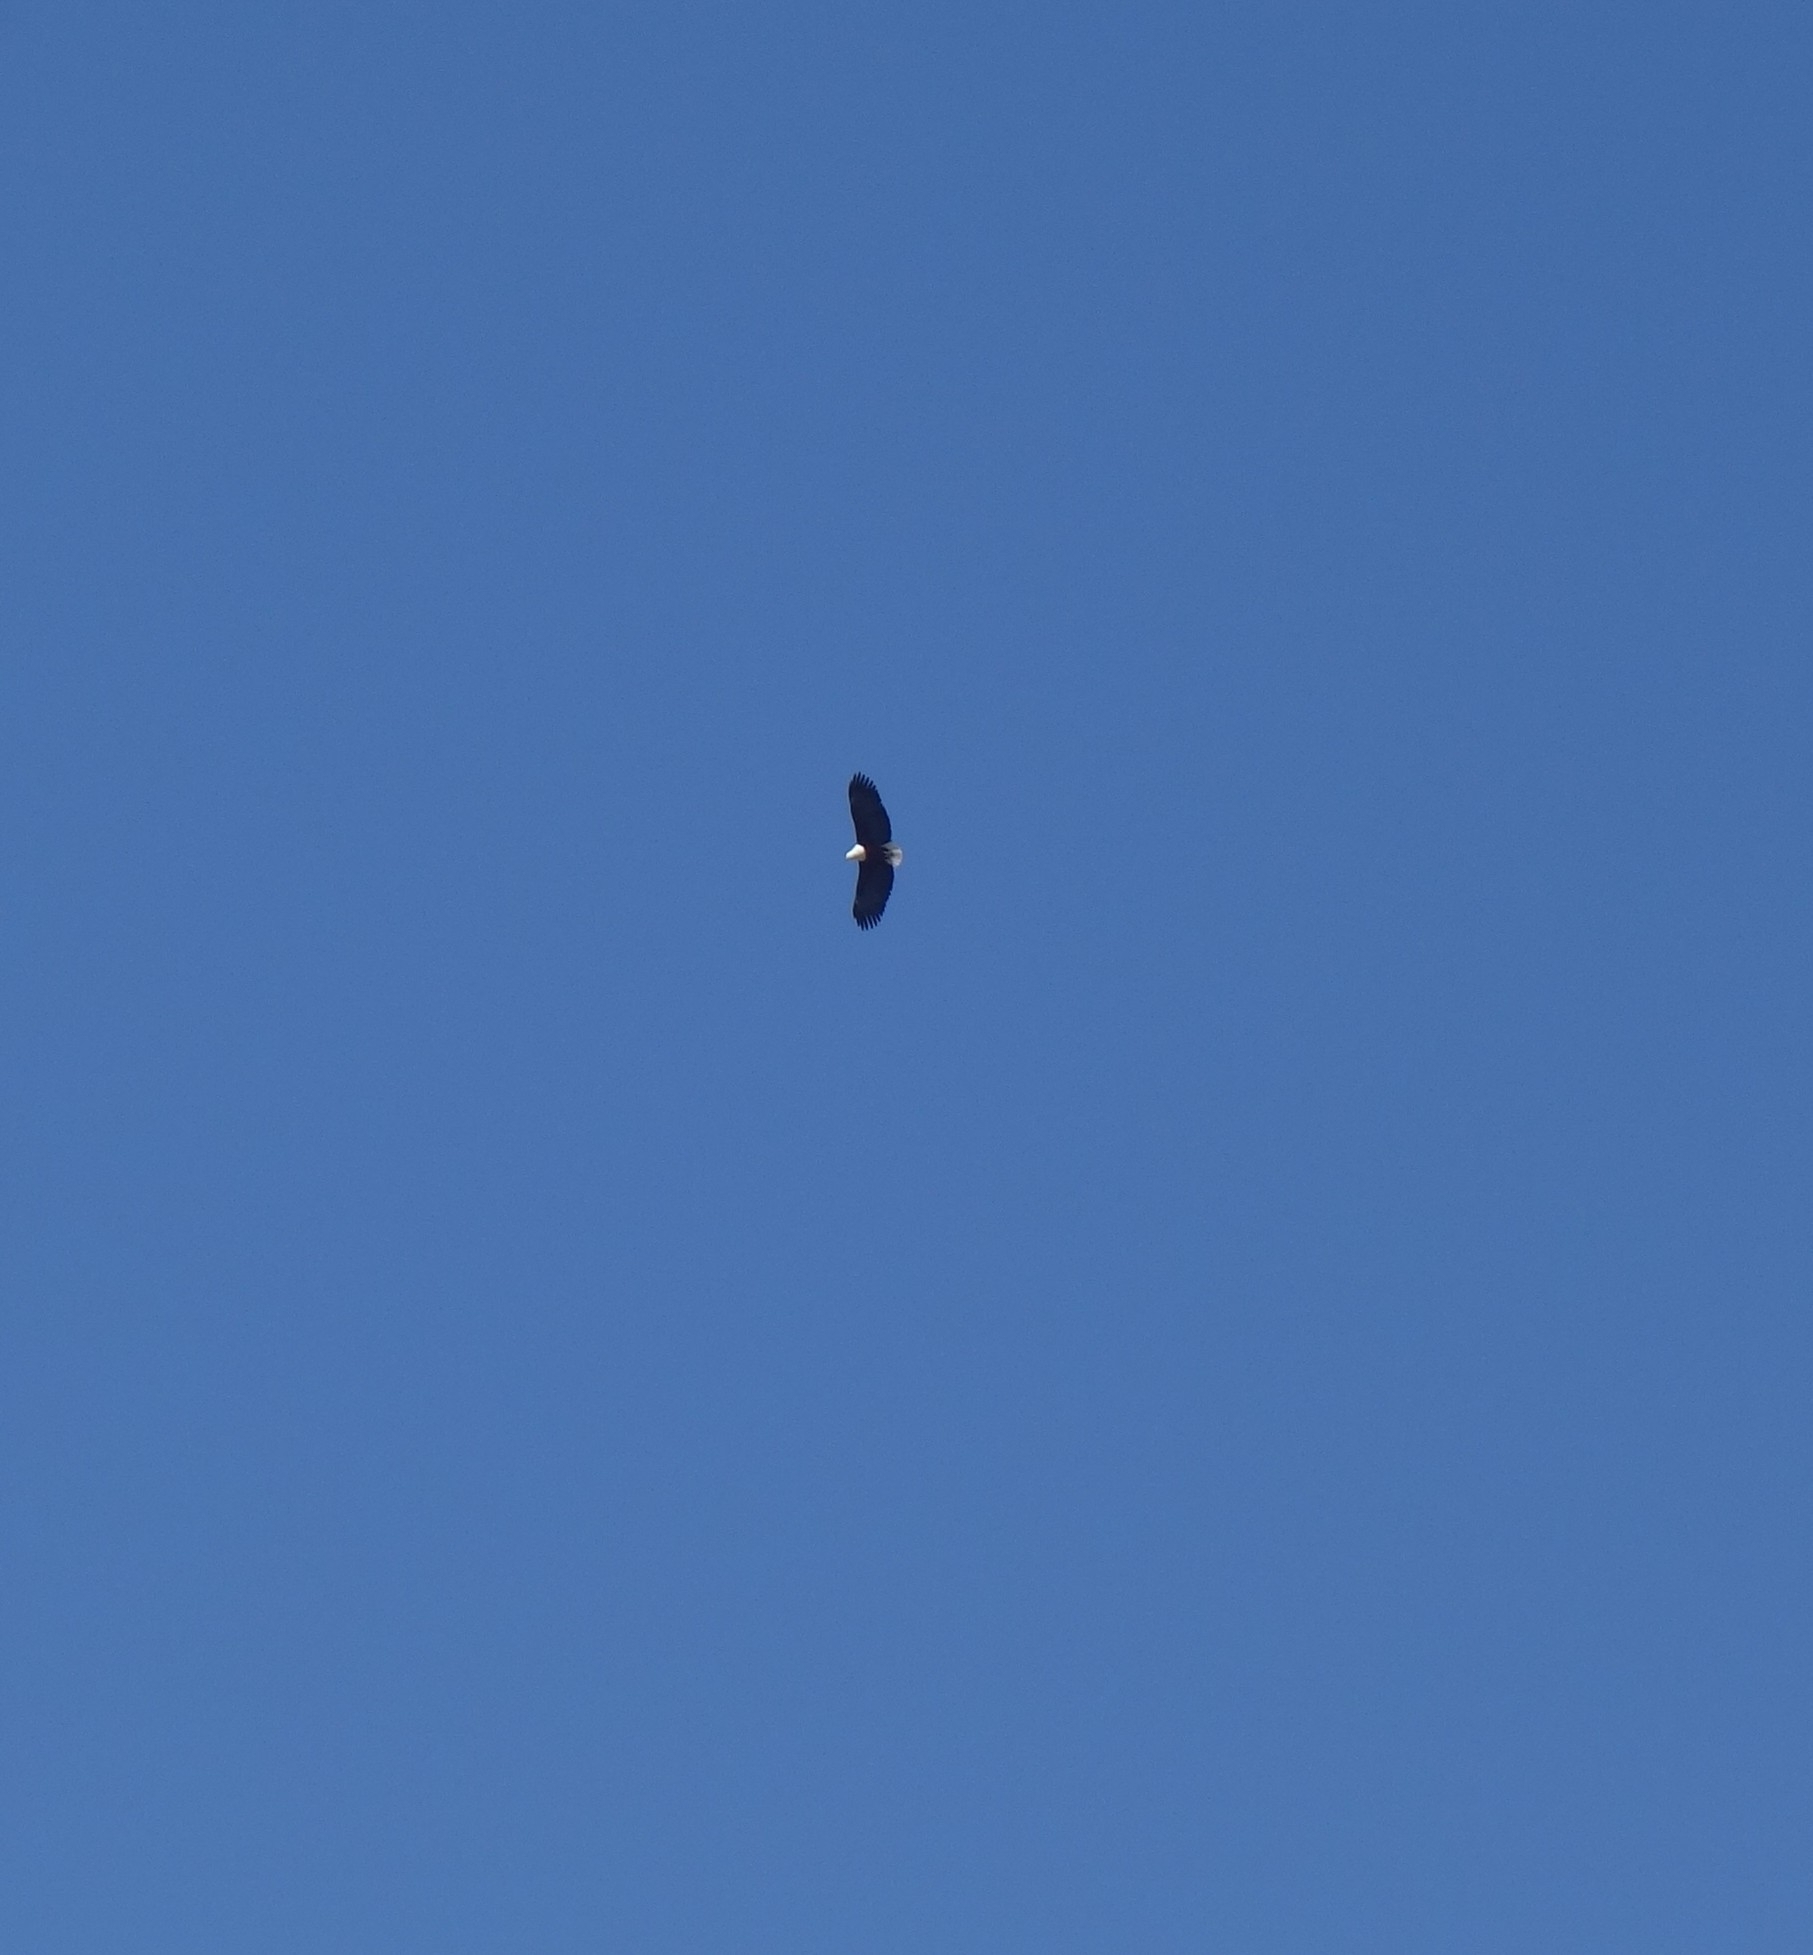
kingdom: Animalia
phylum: Chordata
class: Aves
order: Accipitriformes
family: Accipitridae
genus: Haliaeetus
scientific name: Haliaeetus vocifer
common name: African fish eagle
